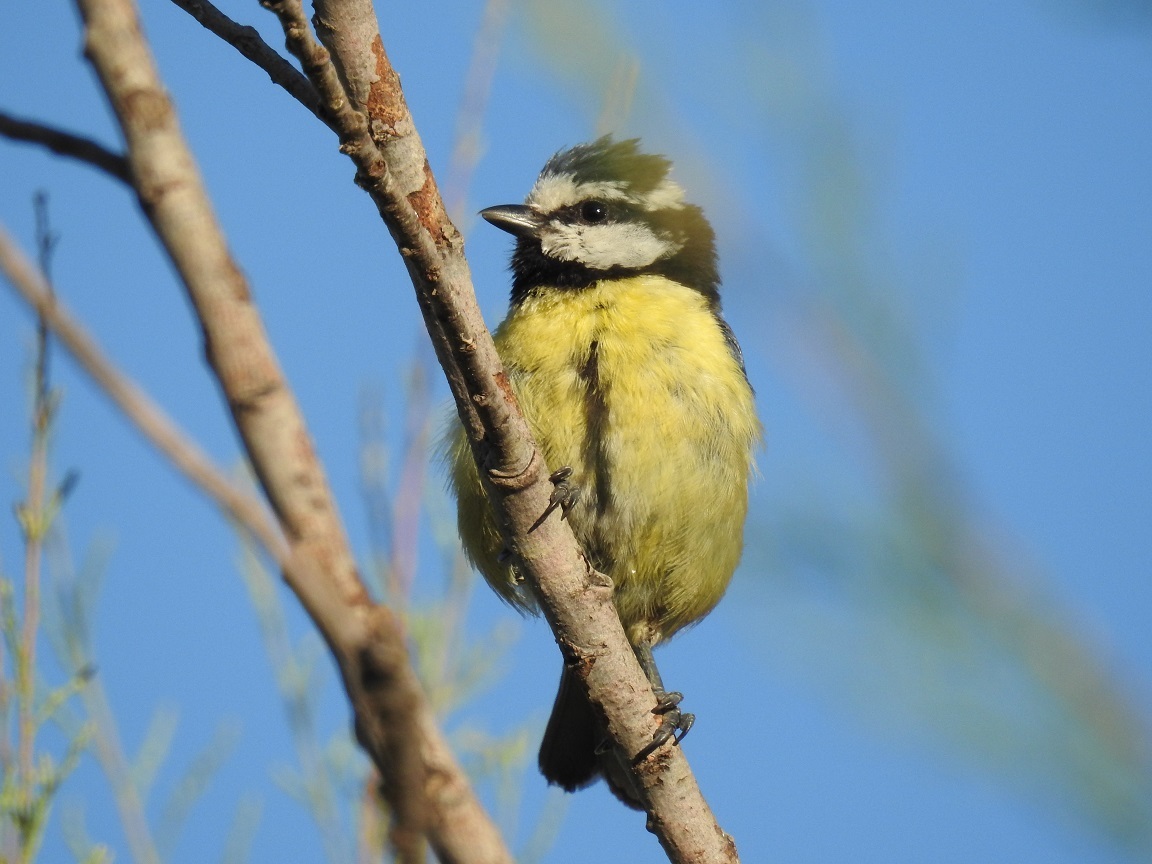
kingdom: Animalia
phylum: Chordata
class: Aves
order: Passeriformes
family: Paridae
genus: Cyanistes
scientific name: Cyanistes teneriffae
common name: African blue tit
